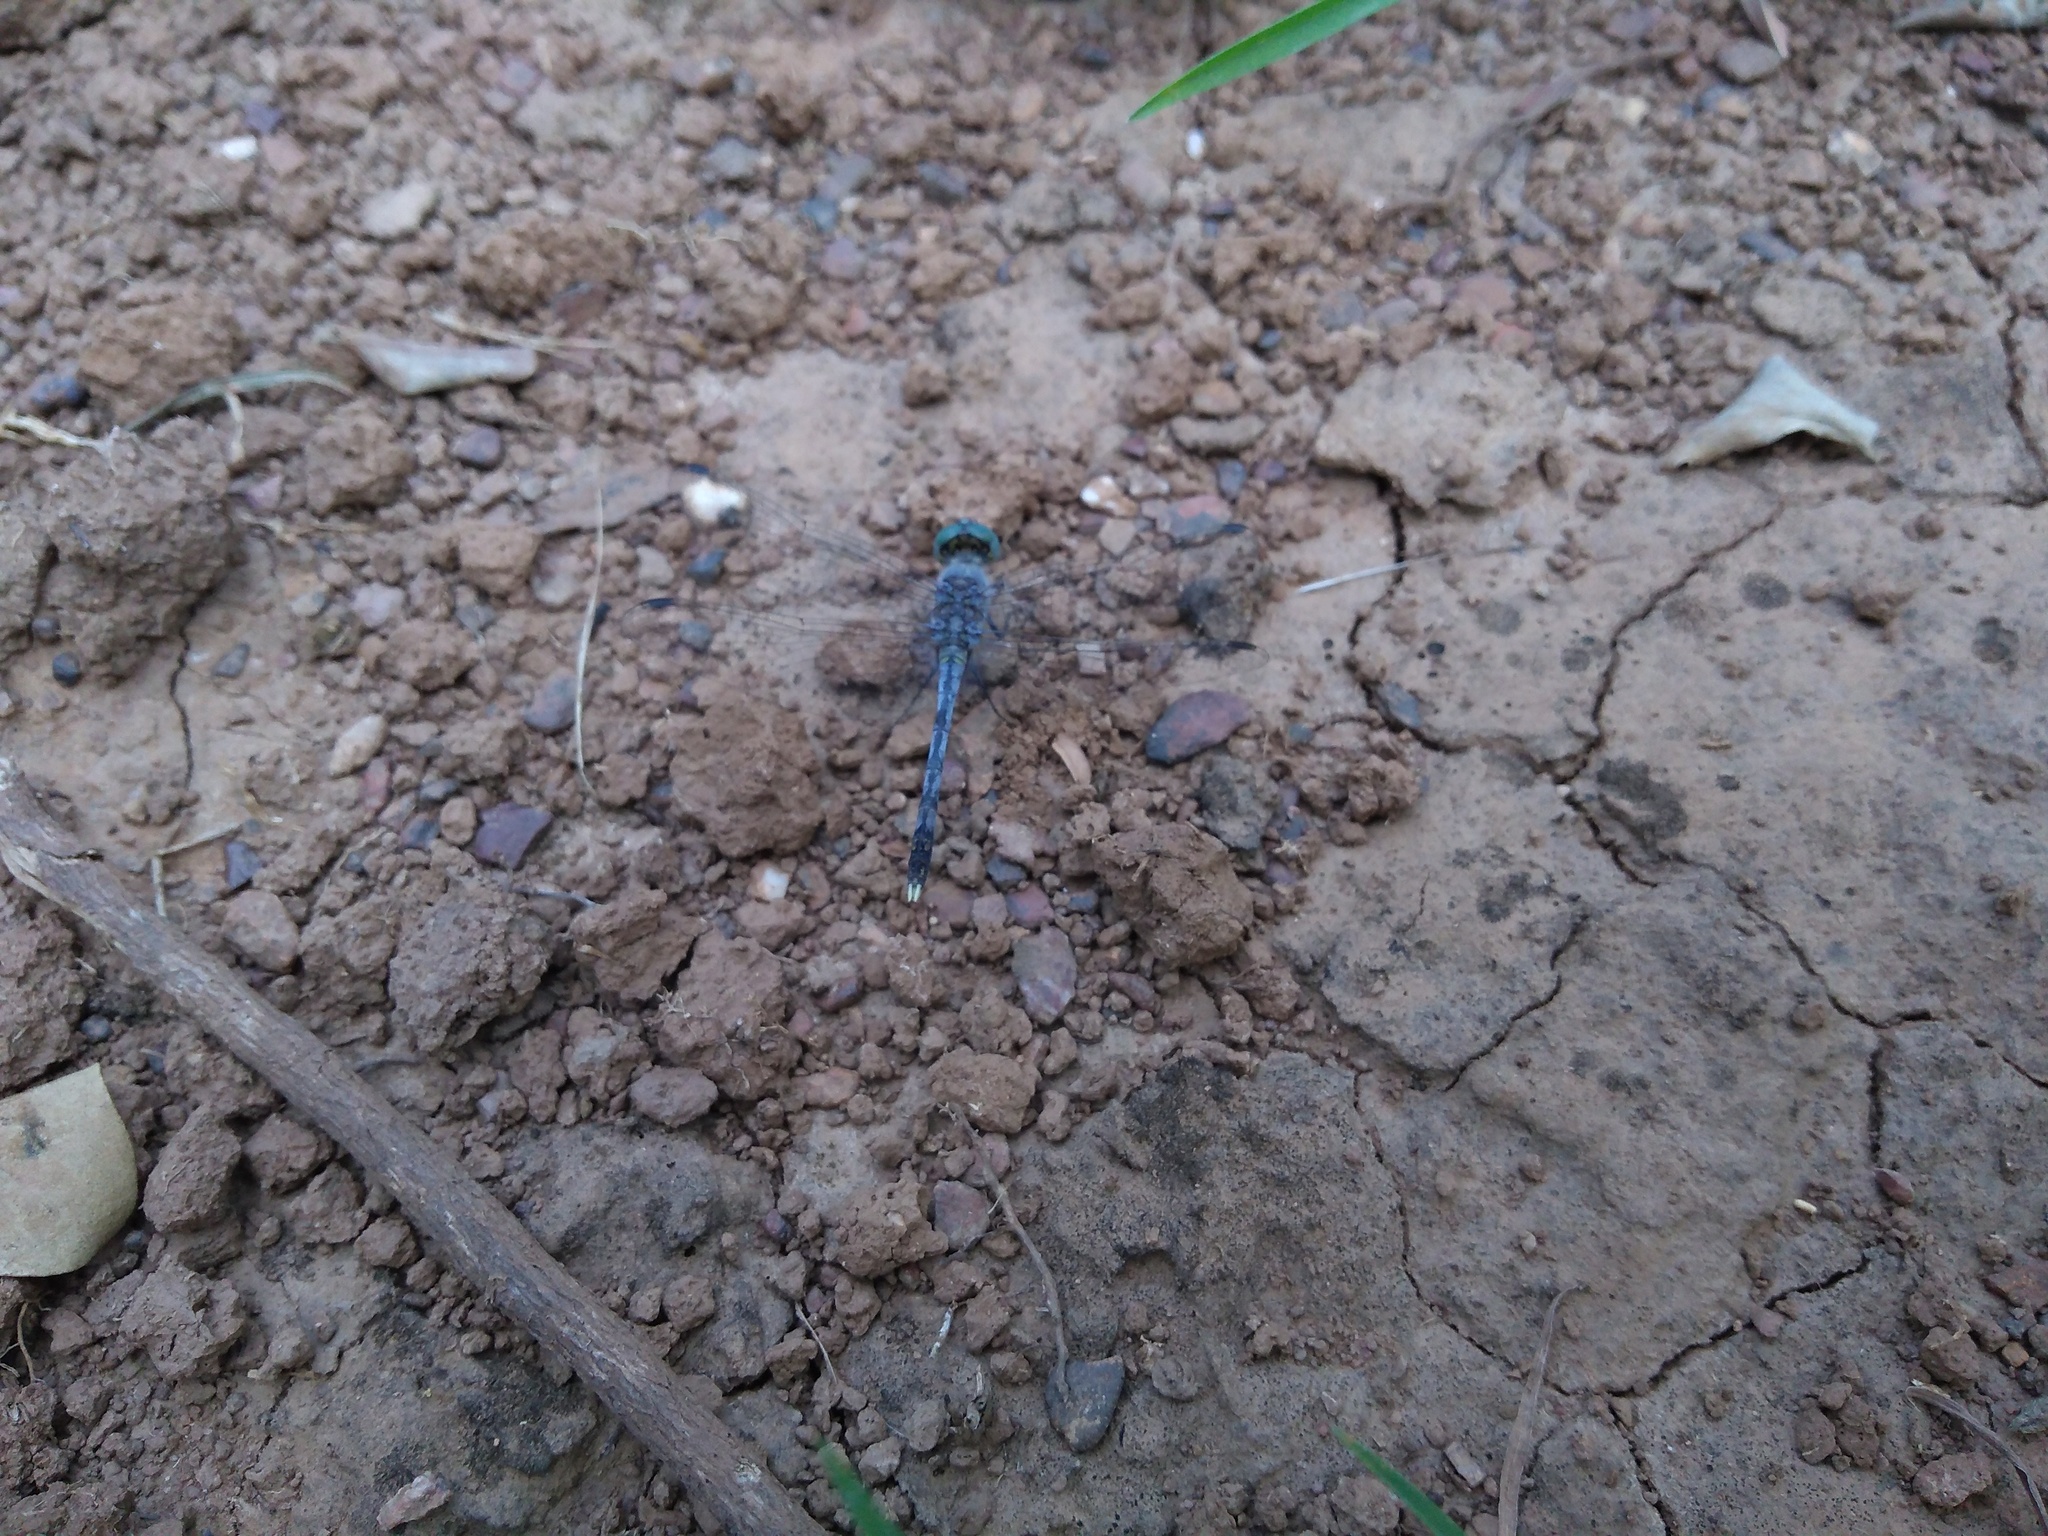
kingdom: Animalia
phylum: Arthropoda
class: Insecta
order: Odonata
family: Libellulidae
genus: Diplacodes
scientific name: Diplacodes trivialis
